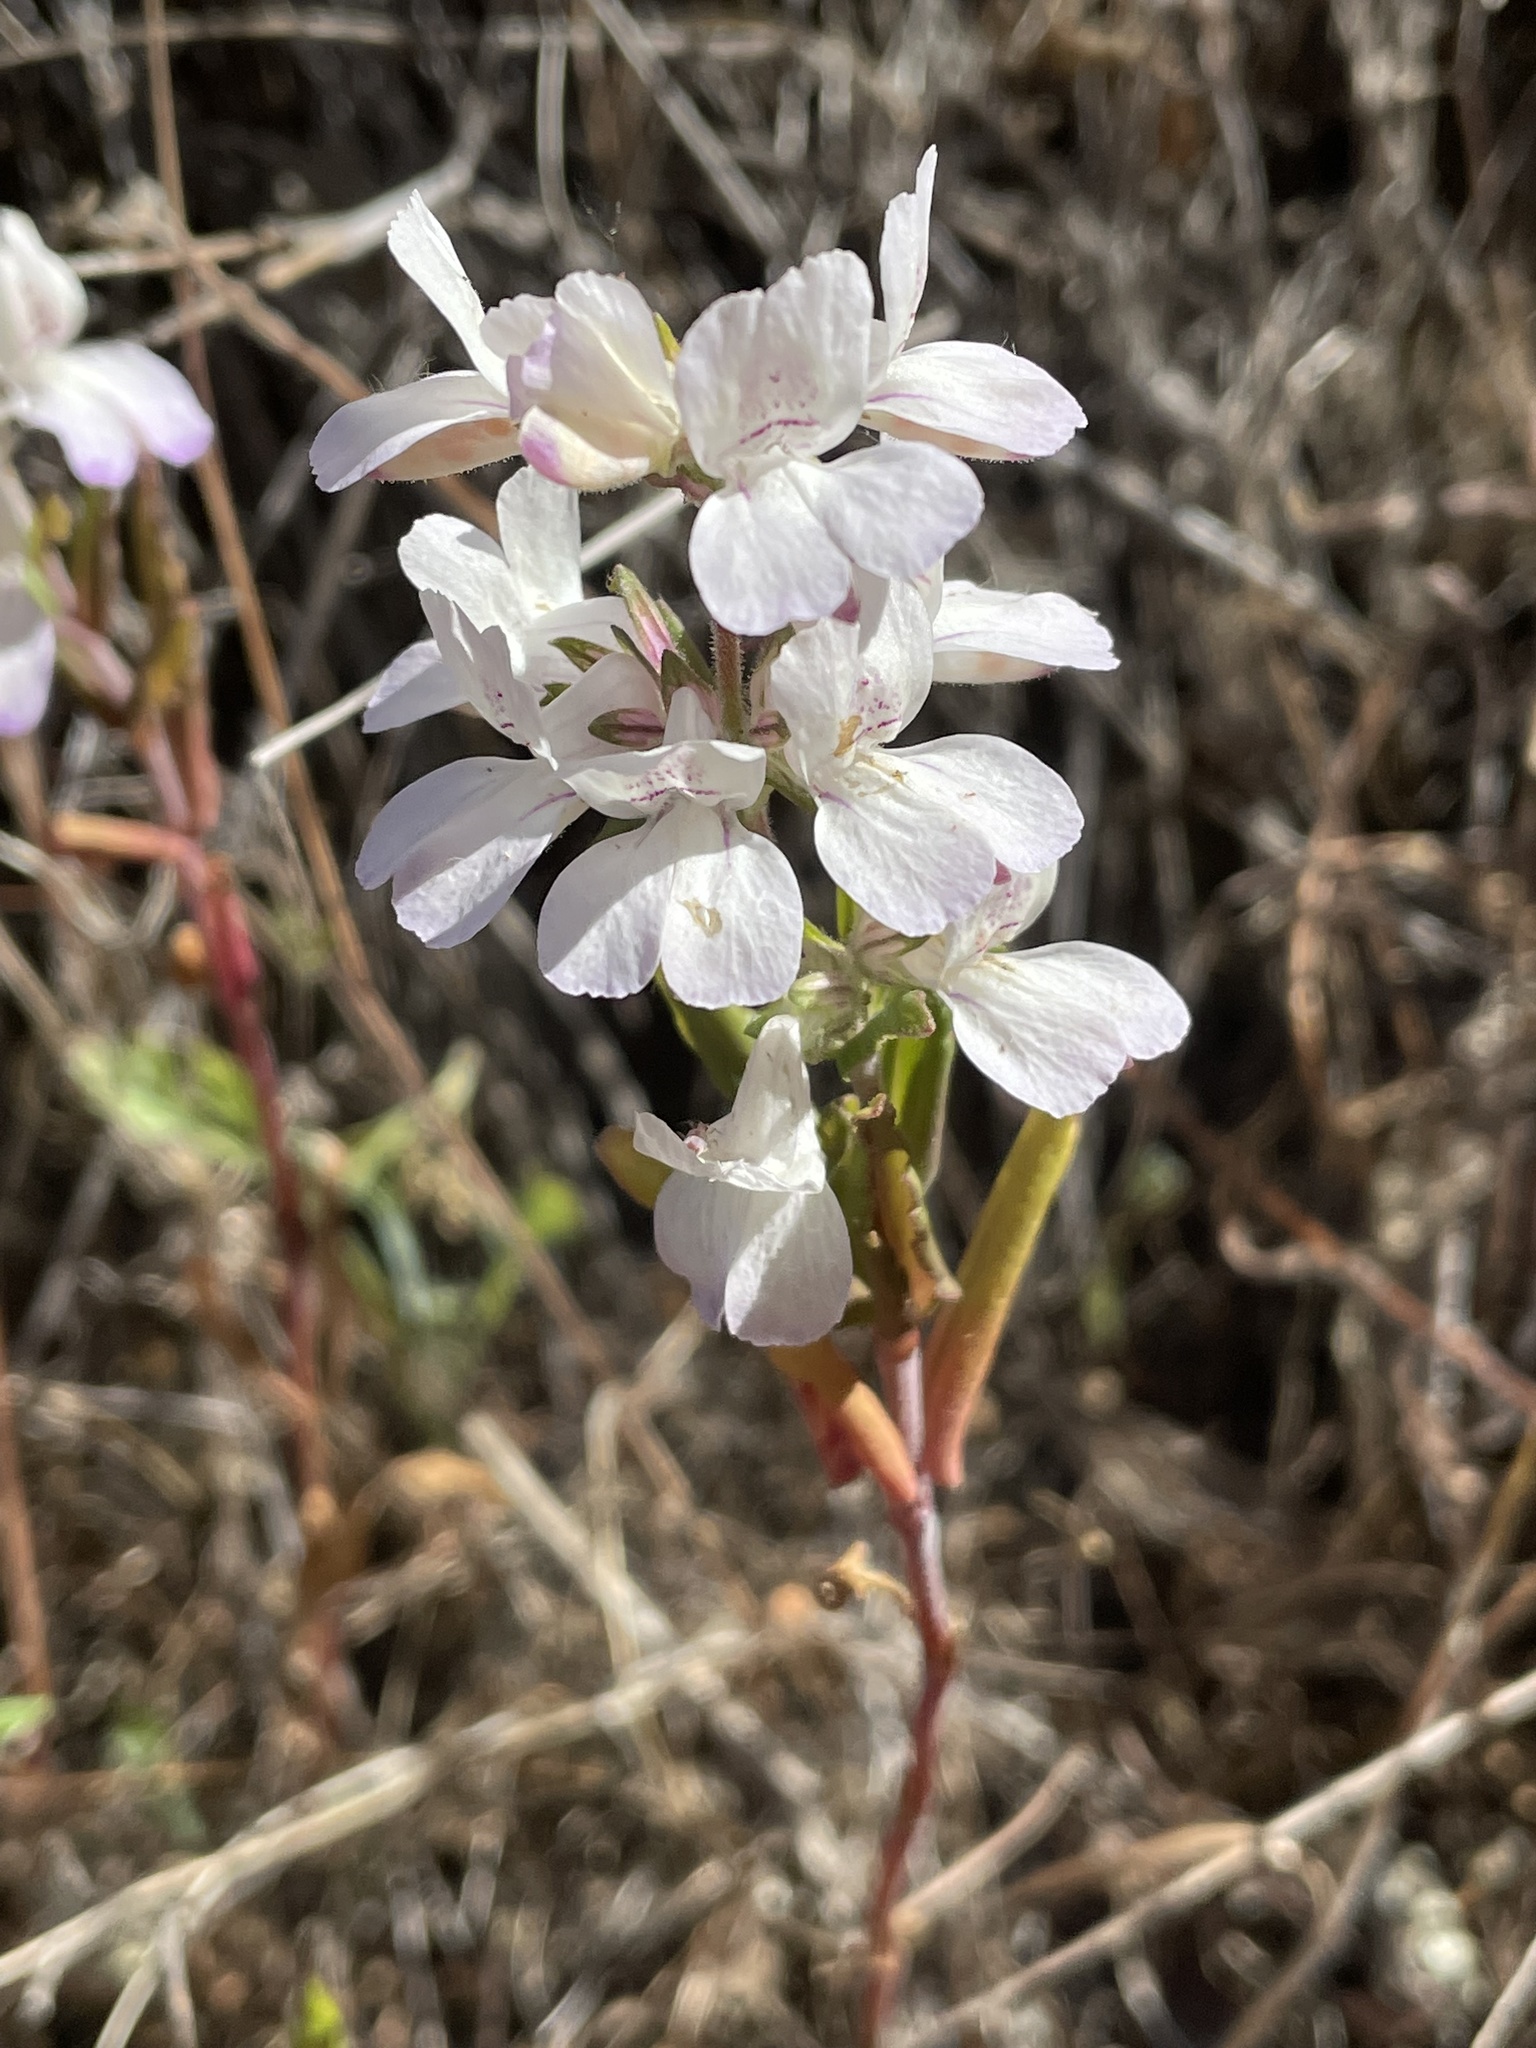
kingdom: Plantae
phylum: Tracheophyta
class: Magnoliopsida
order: Lamiales
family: Plantaginaceae
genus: Collinsia
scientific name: Collinsia heterophylla
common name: Chinese-houses
